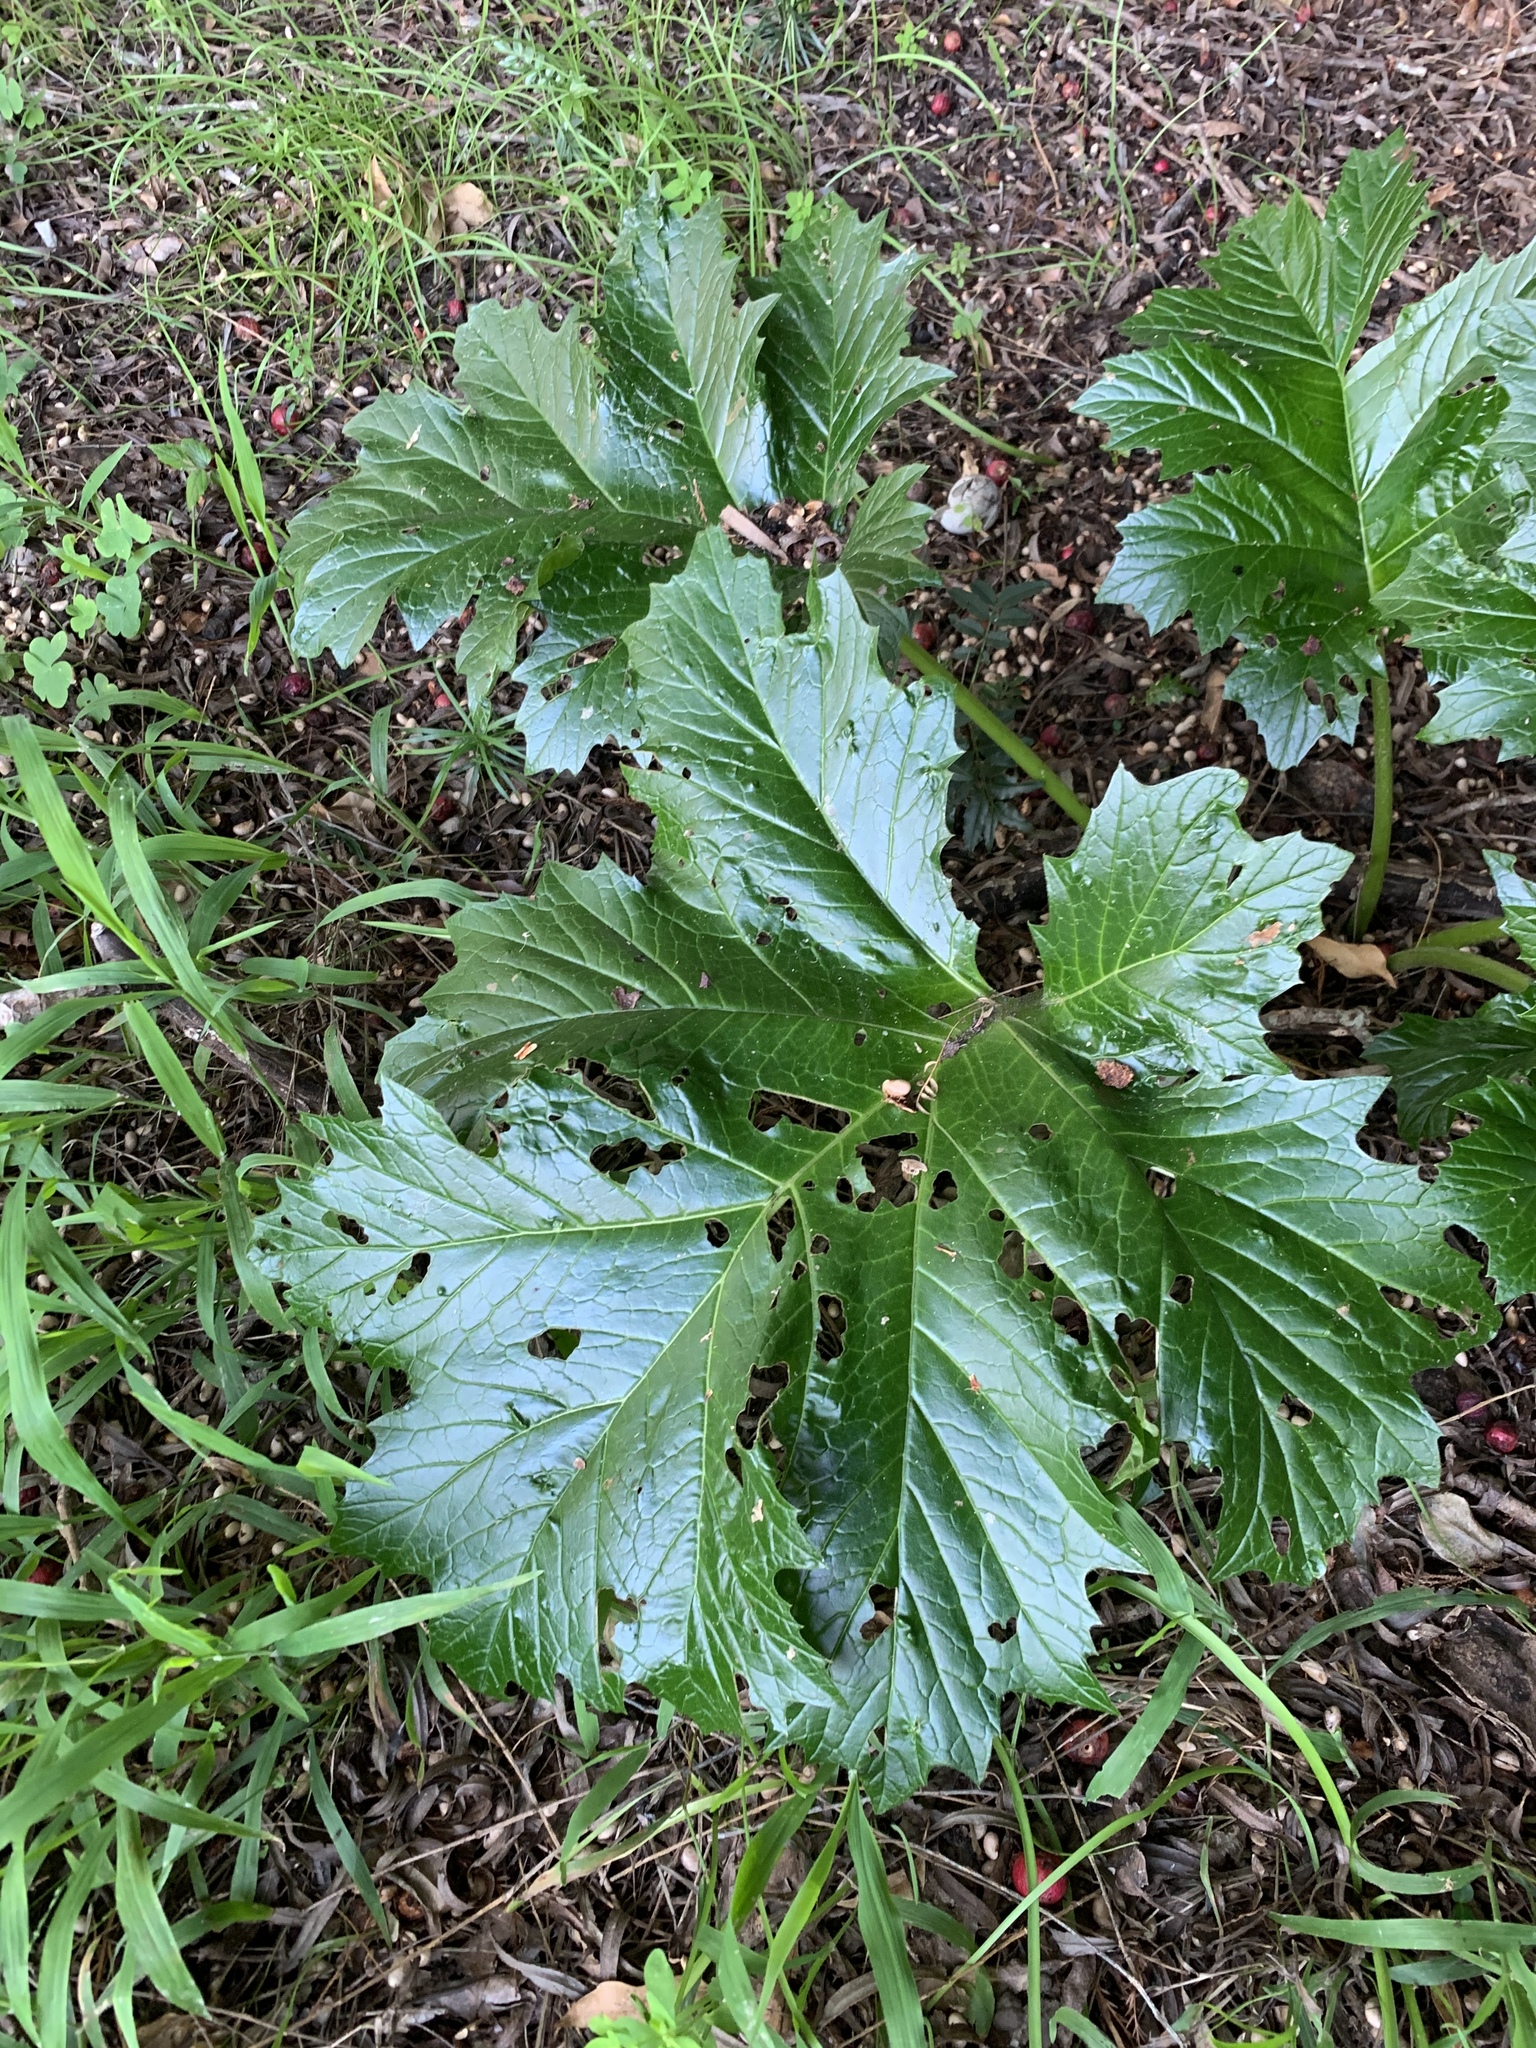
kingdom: Plantae
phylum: Tracheophyta
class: Magnoliopsida
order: Lamiales
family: Acanthaceae
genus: Acanthus
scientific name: Acanthus mollis
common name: Bear's-breech
